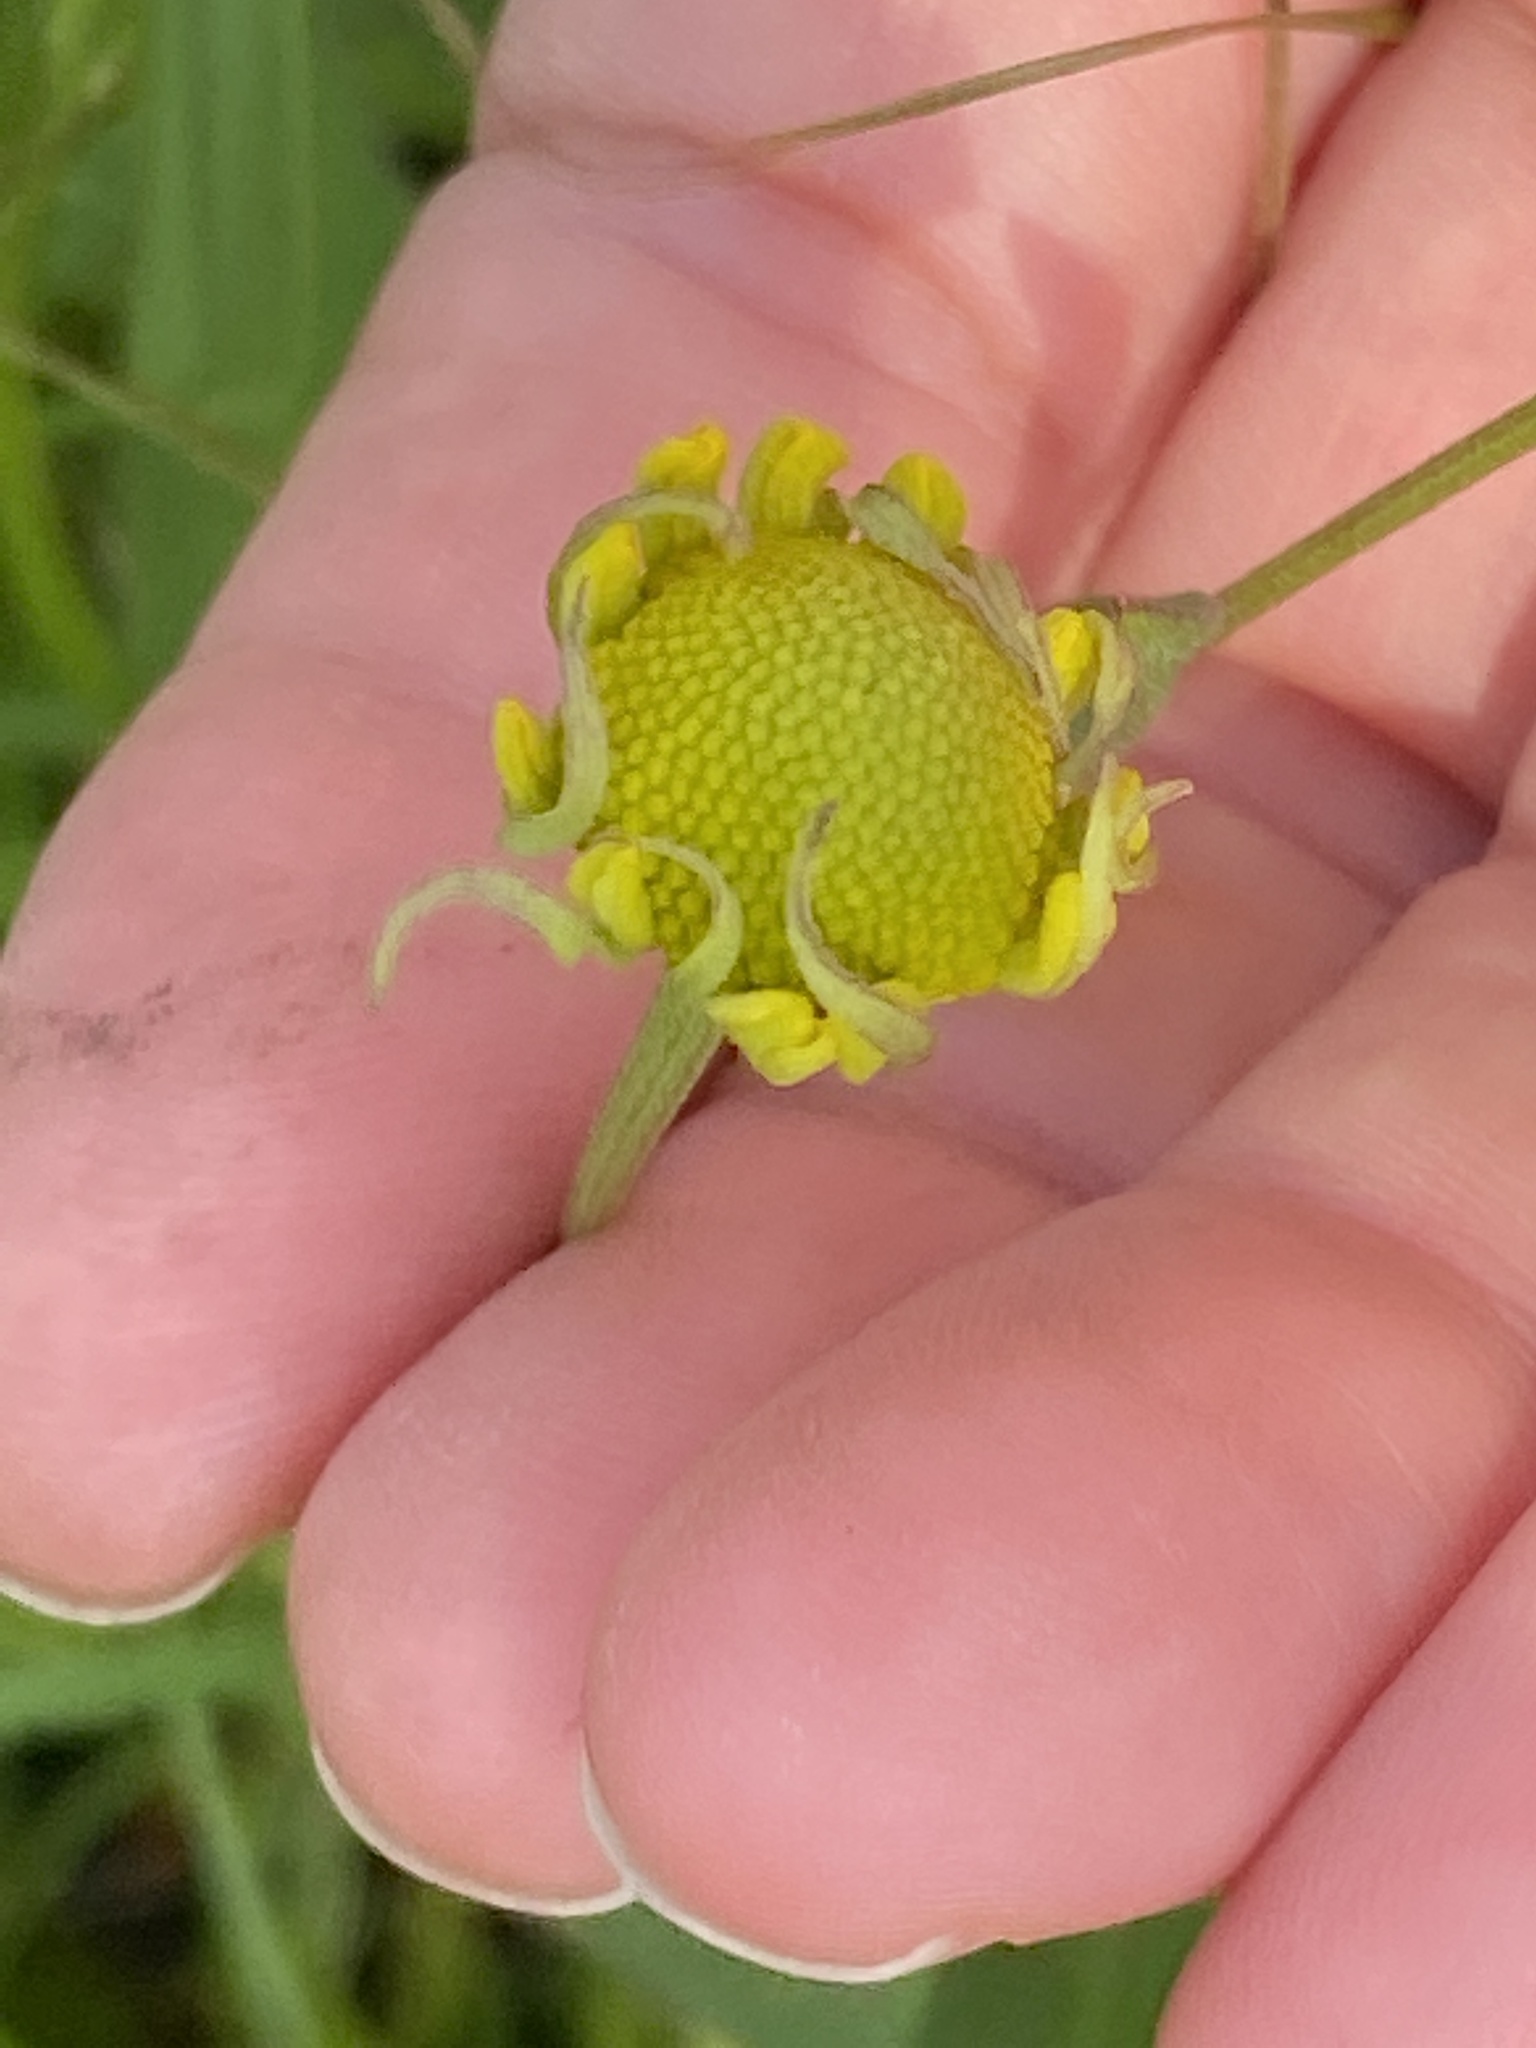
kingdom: Plantae
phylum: Tracheophyta
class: Magnoliopsida
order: Asterales
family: Asteraceae
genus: Helenium
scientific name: Helenium autumnale
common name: Sneezeweed
